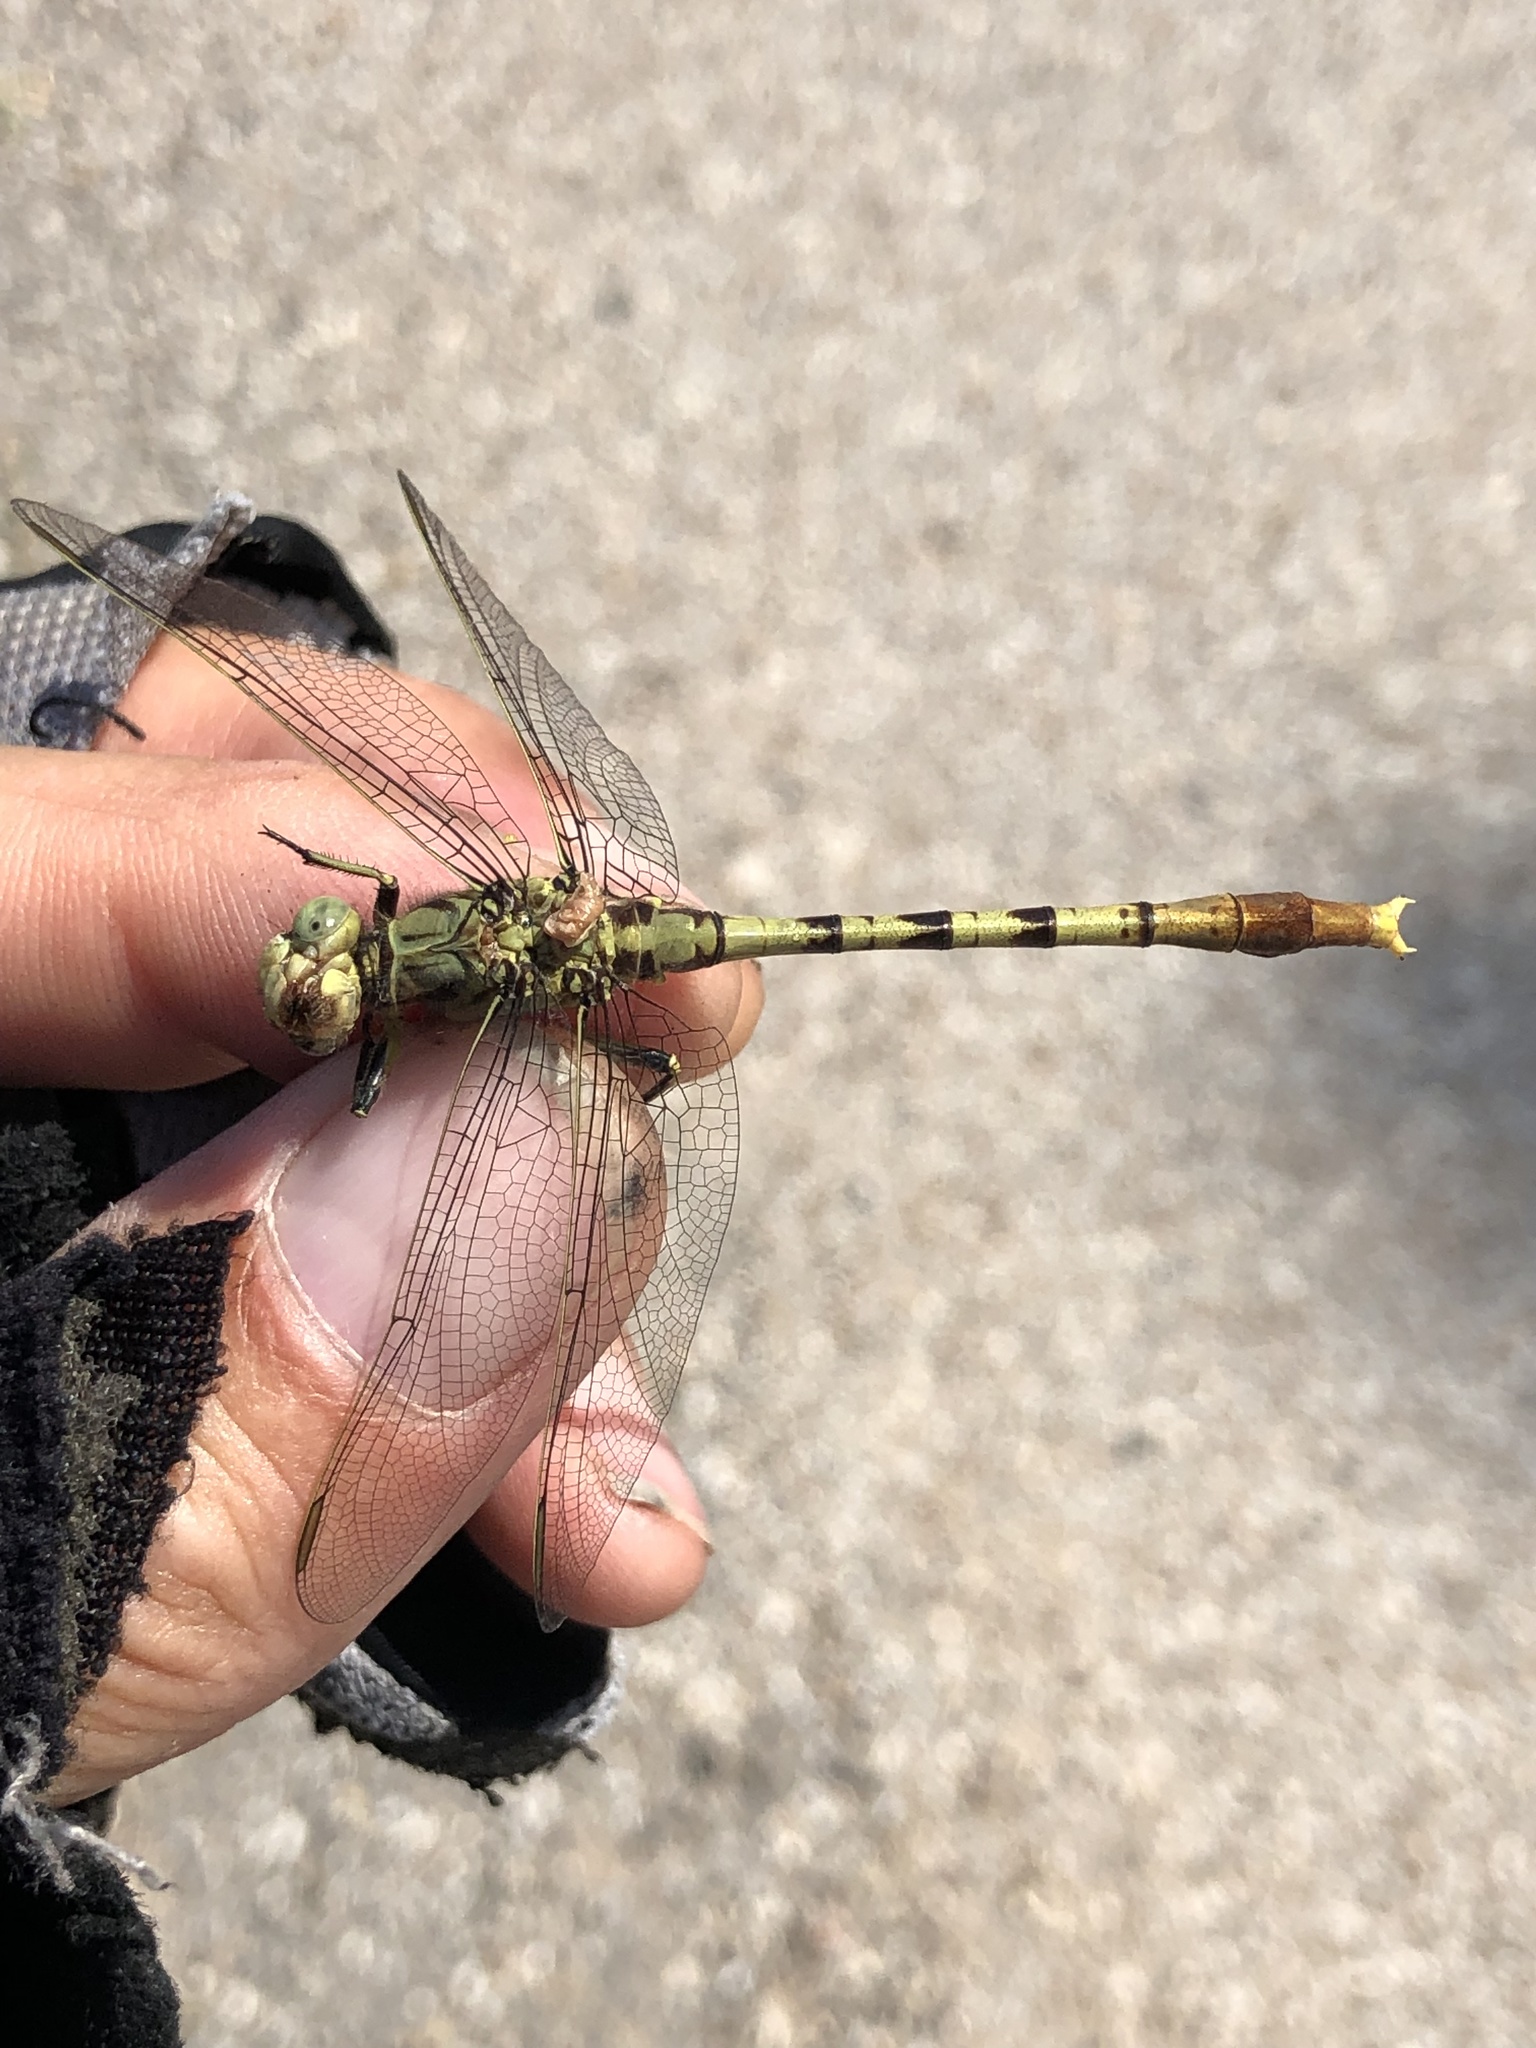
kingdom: Animalia
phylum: Arthropoda
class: Insecta
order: Odonata
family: Gomphidae
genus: Arigomphus
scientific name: Arigomphus submedianus
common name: Jade clubtail
